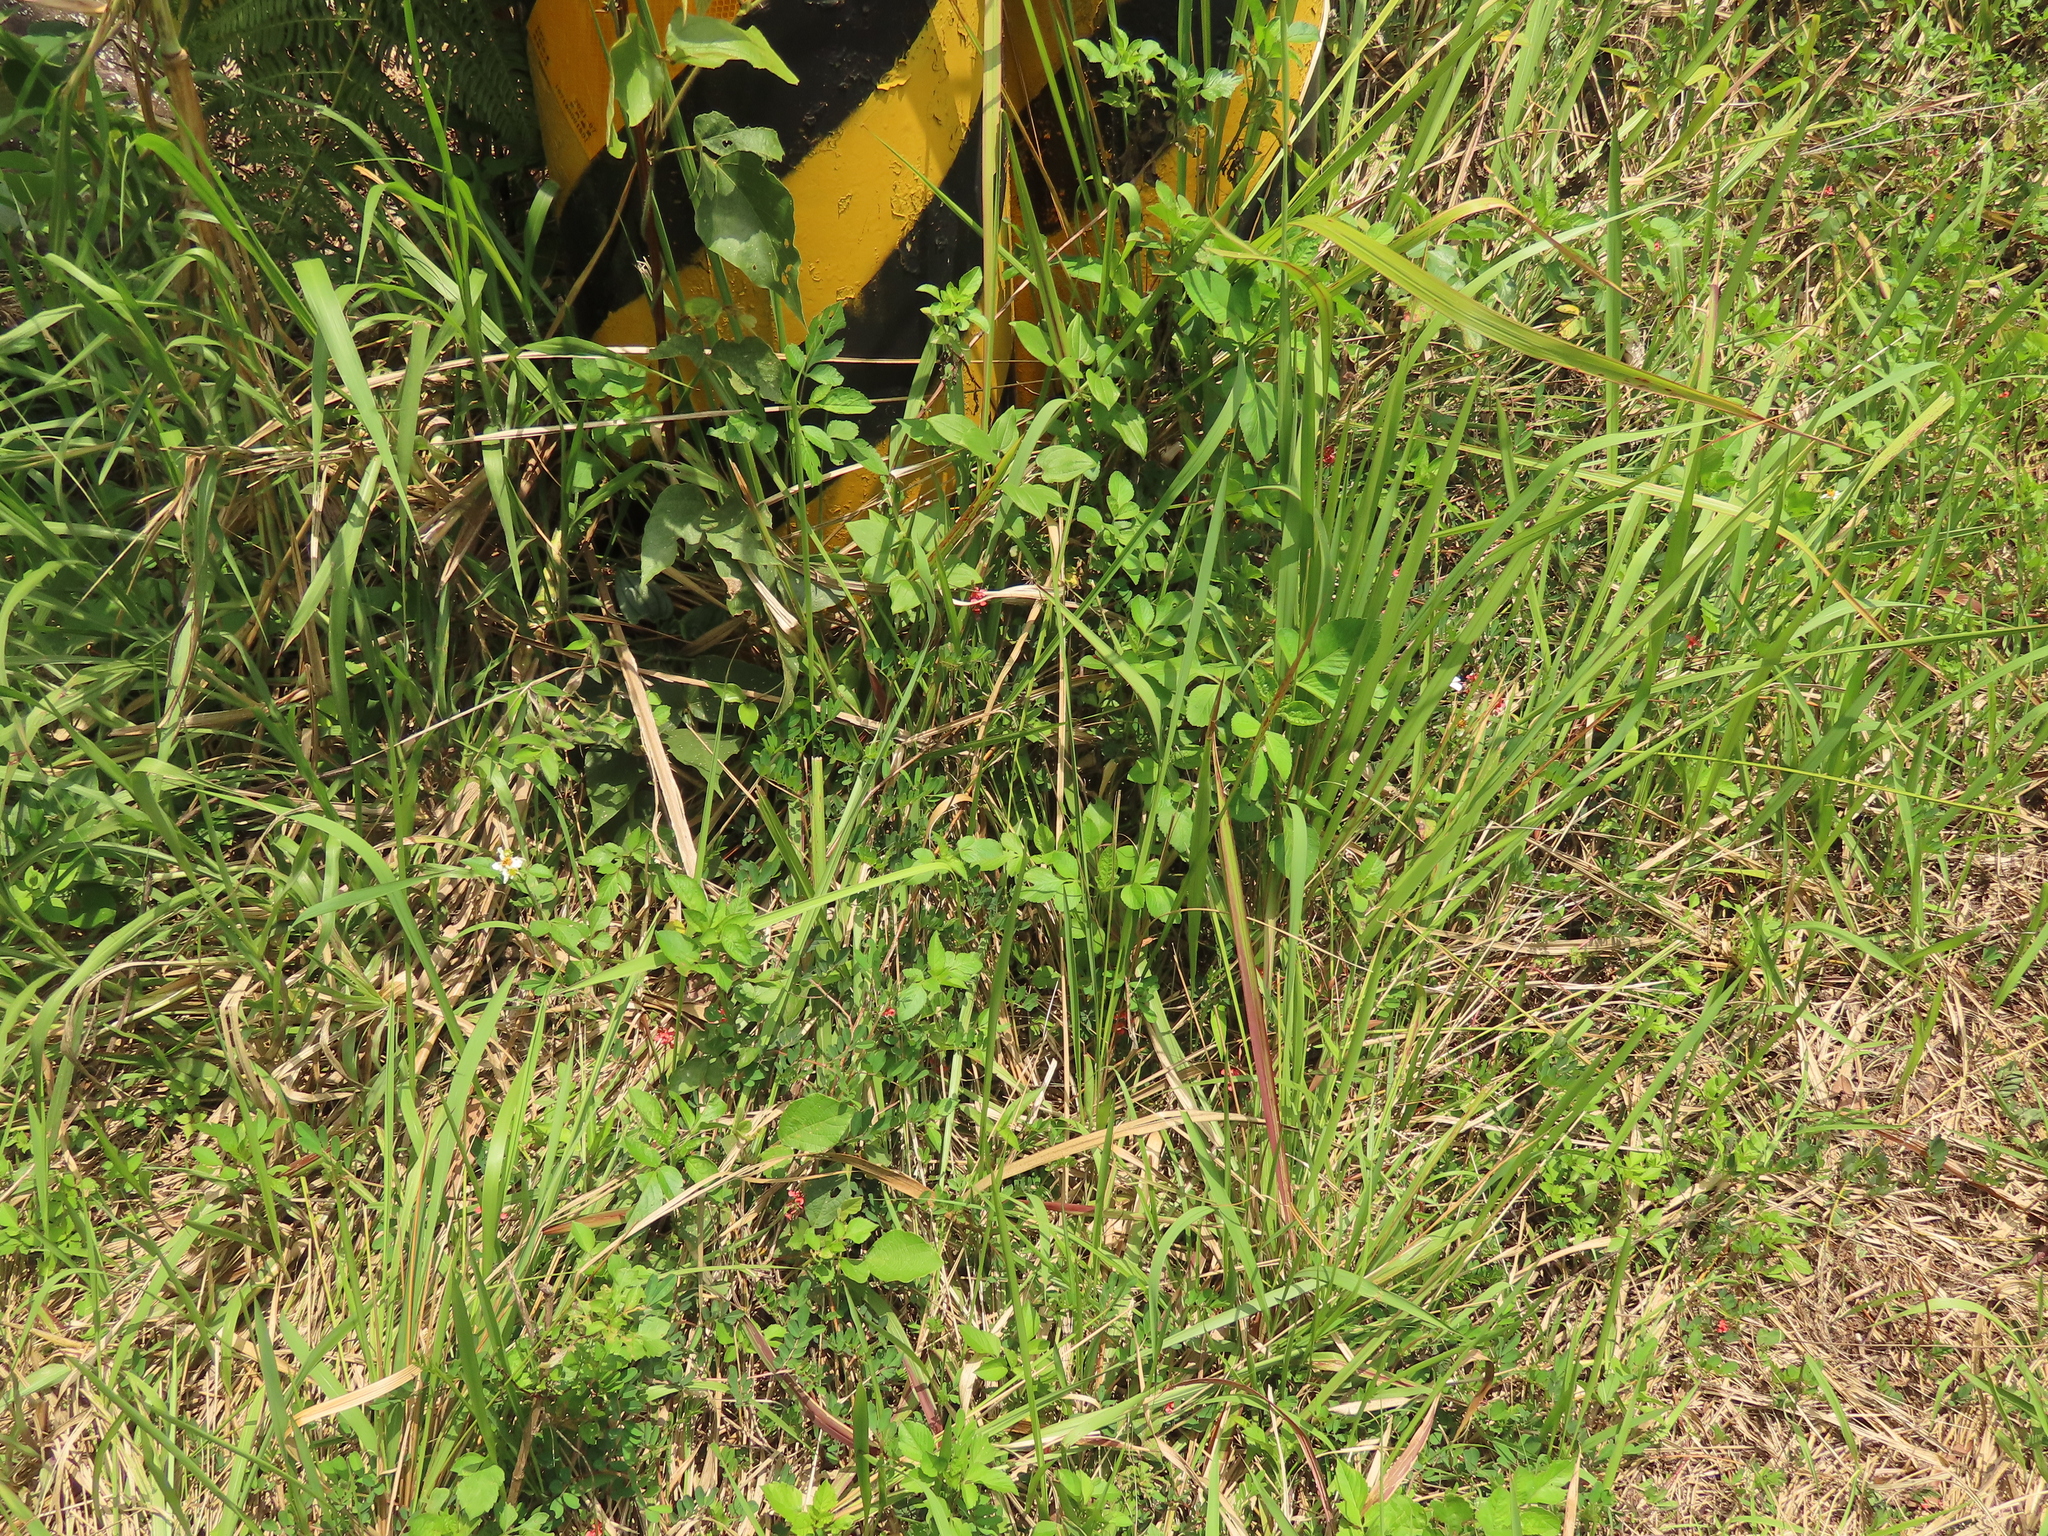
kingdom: Plantae
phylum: Tracheophyta
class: Magnoliopsida
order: Fabales
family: Fabaceae
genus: Indigofera
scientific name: Indigofera hendecaphylla
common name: Trailing indigo
